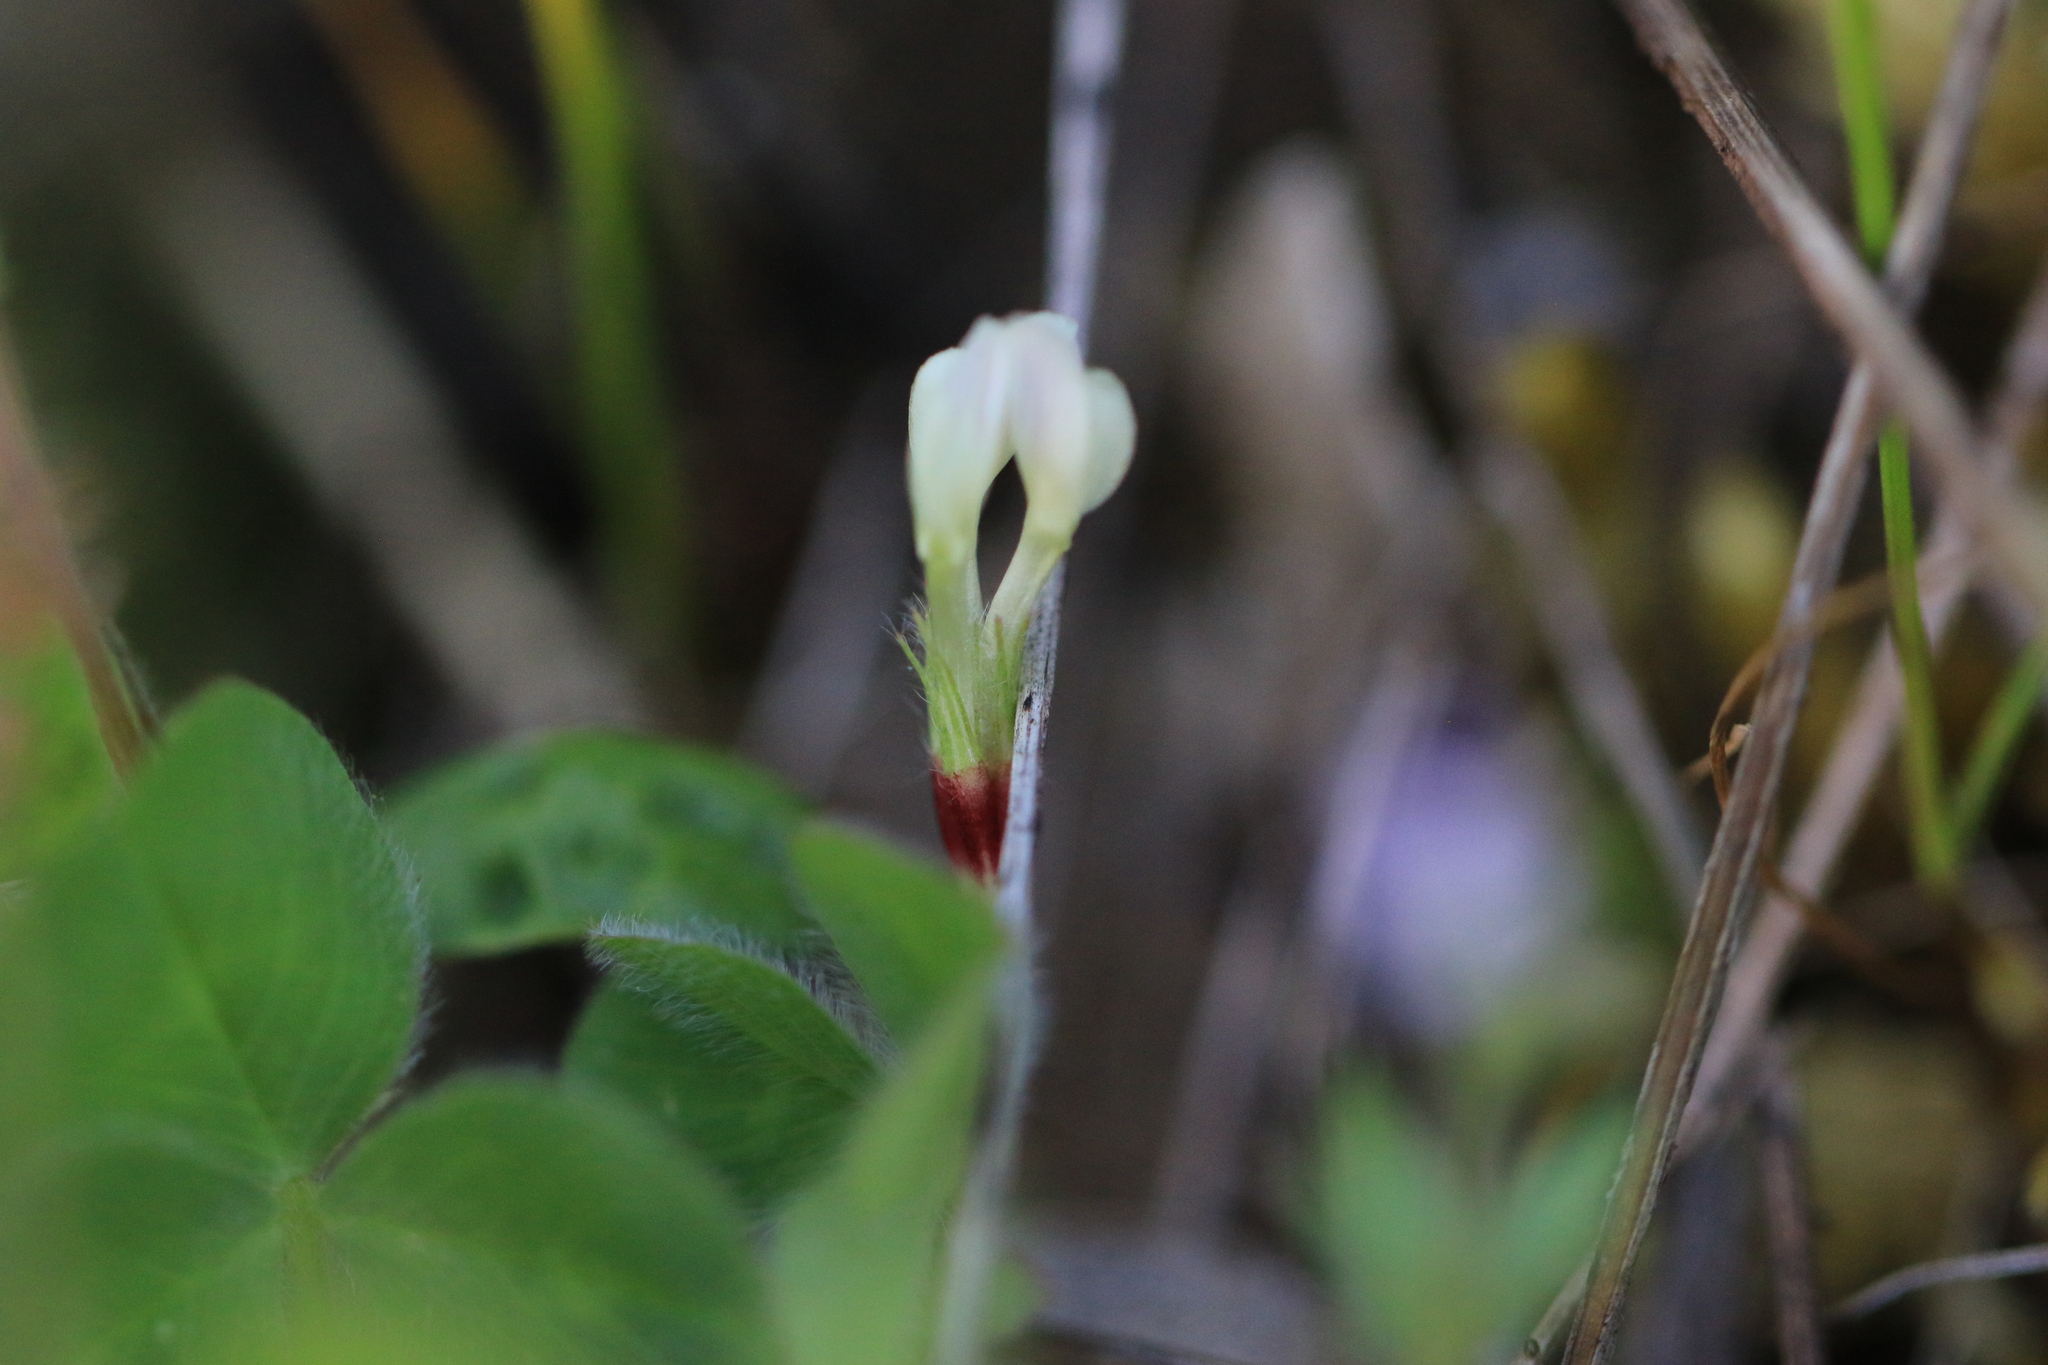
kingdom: Plantae
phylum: Tracheophyta
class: Magnoliopsida
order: Fabales
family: Fabaceae
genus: Trifolium
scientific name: Trifolium subterraneum
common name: Subterranean clover
